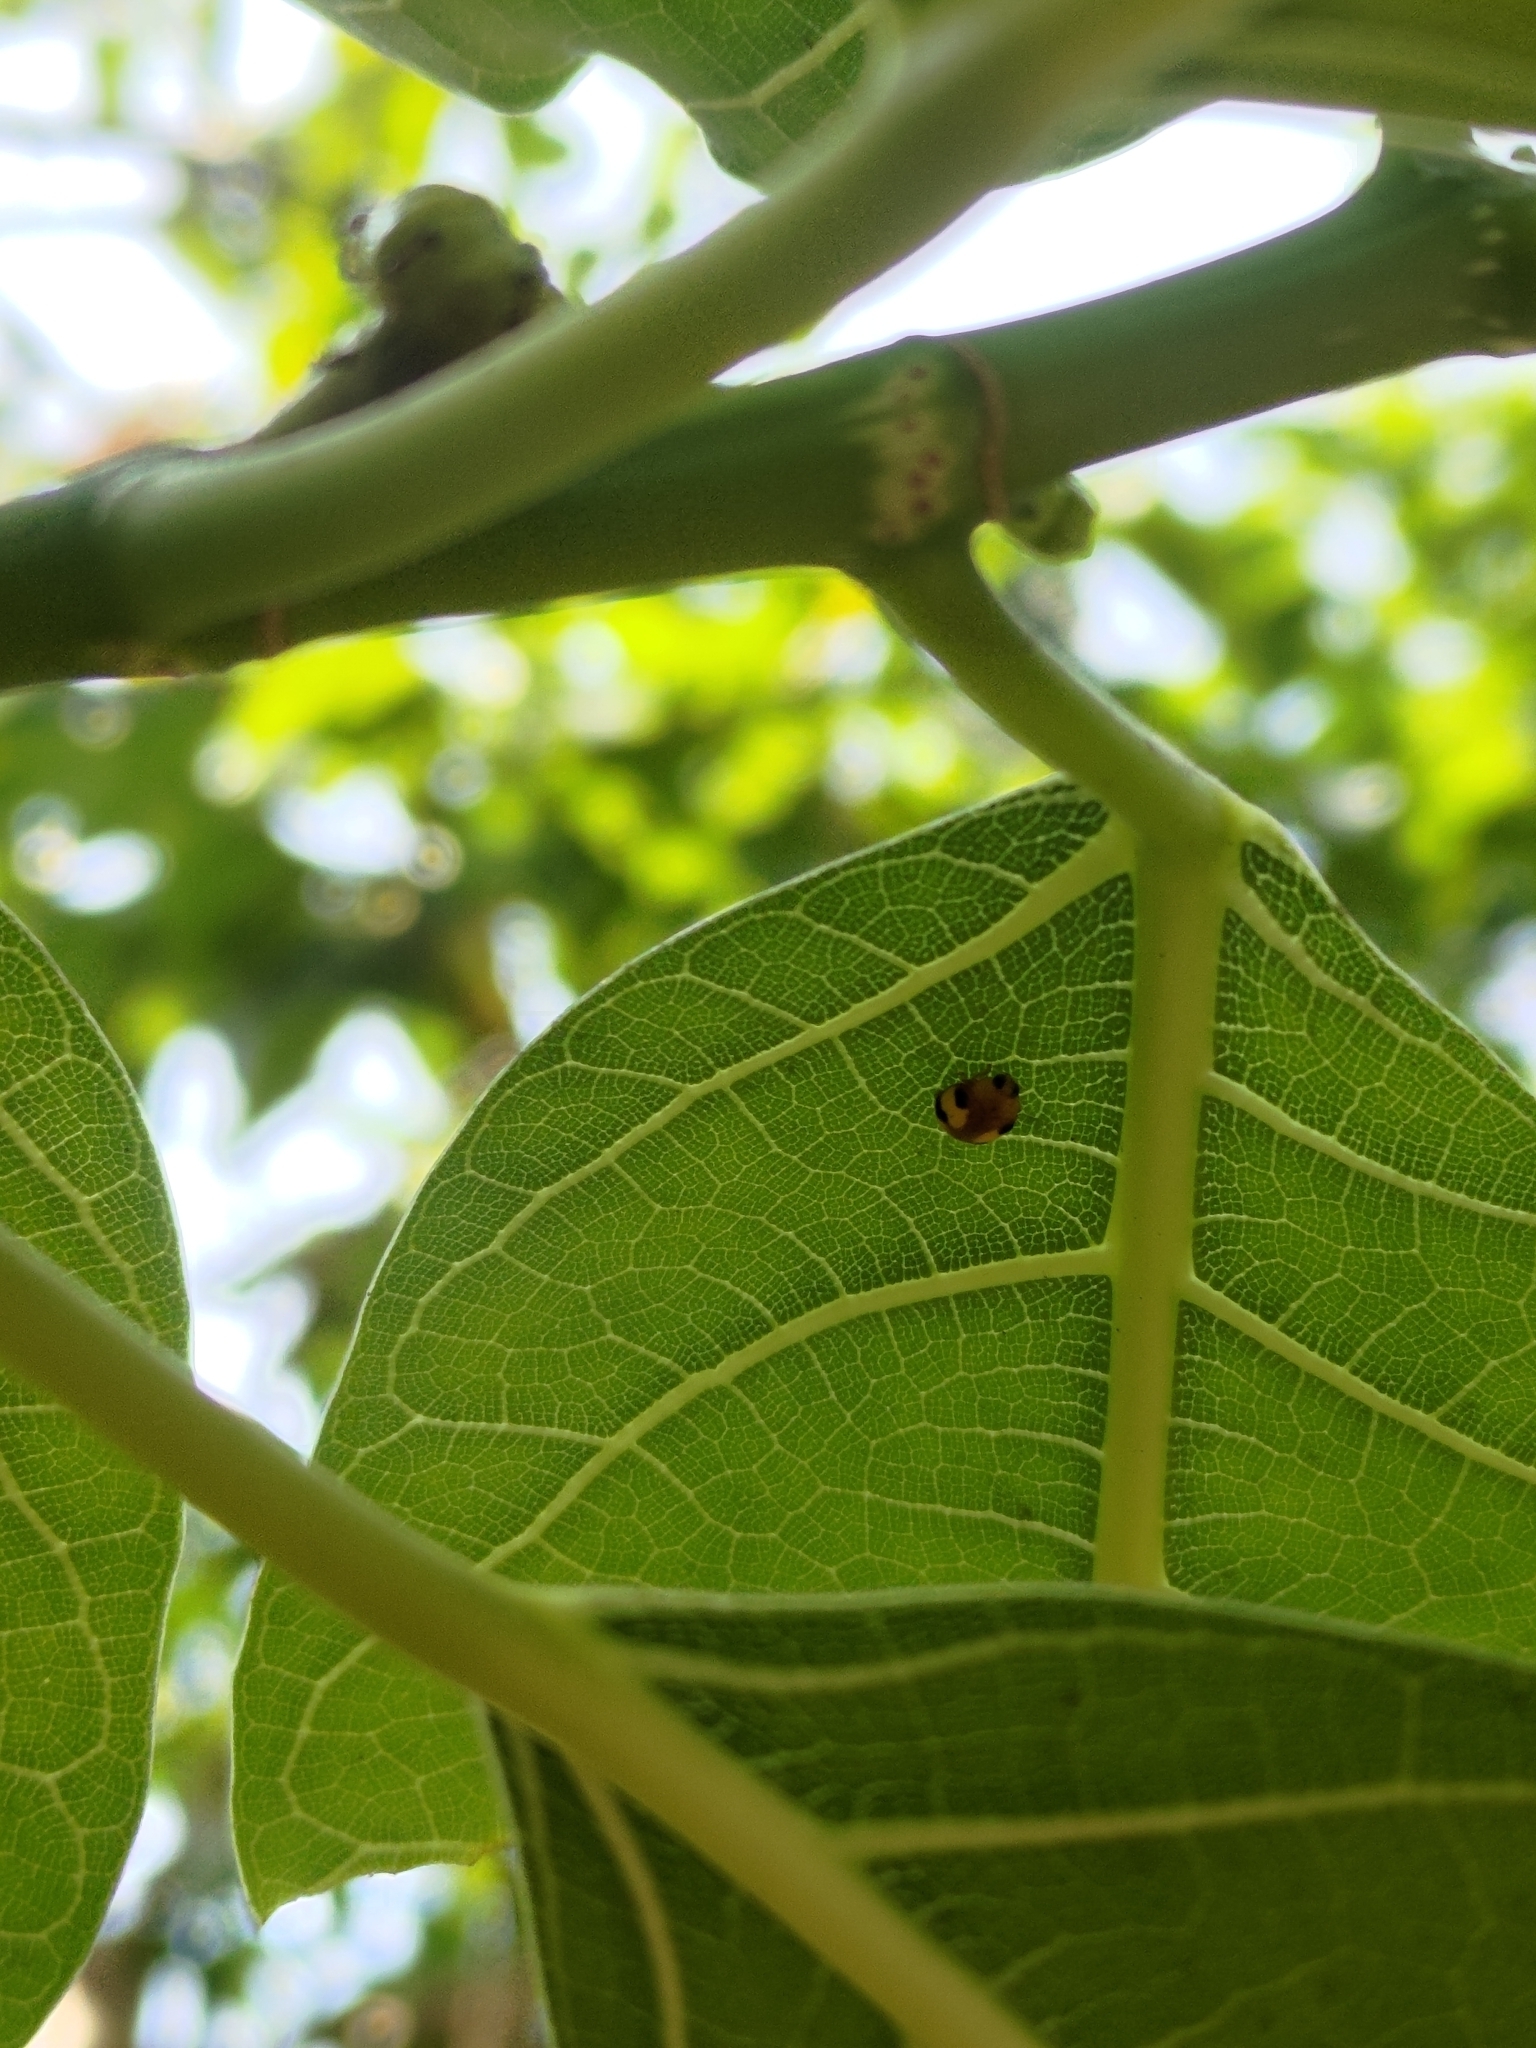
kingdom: Animalia
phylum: Arthropoda
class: Insecta
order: Coleoptera
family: Coccinellidae
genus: Amida
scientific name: Amida tricolor
